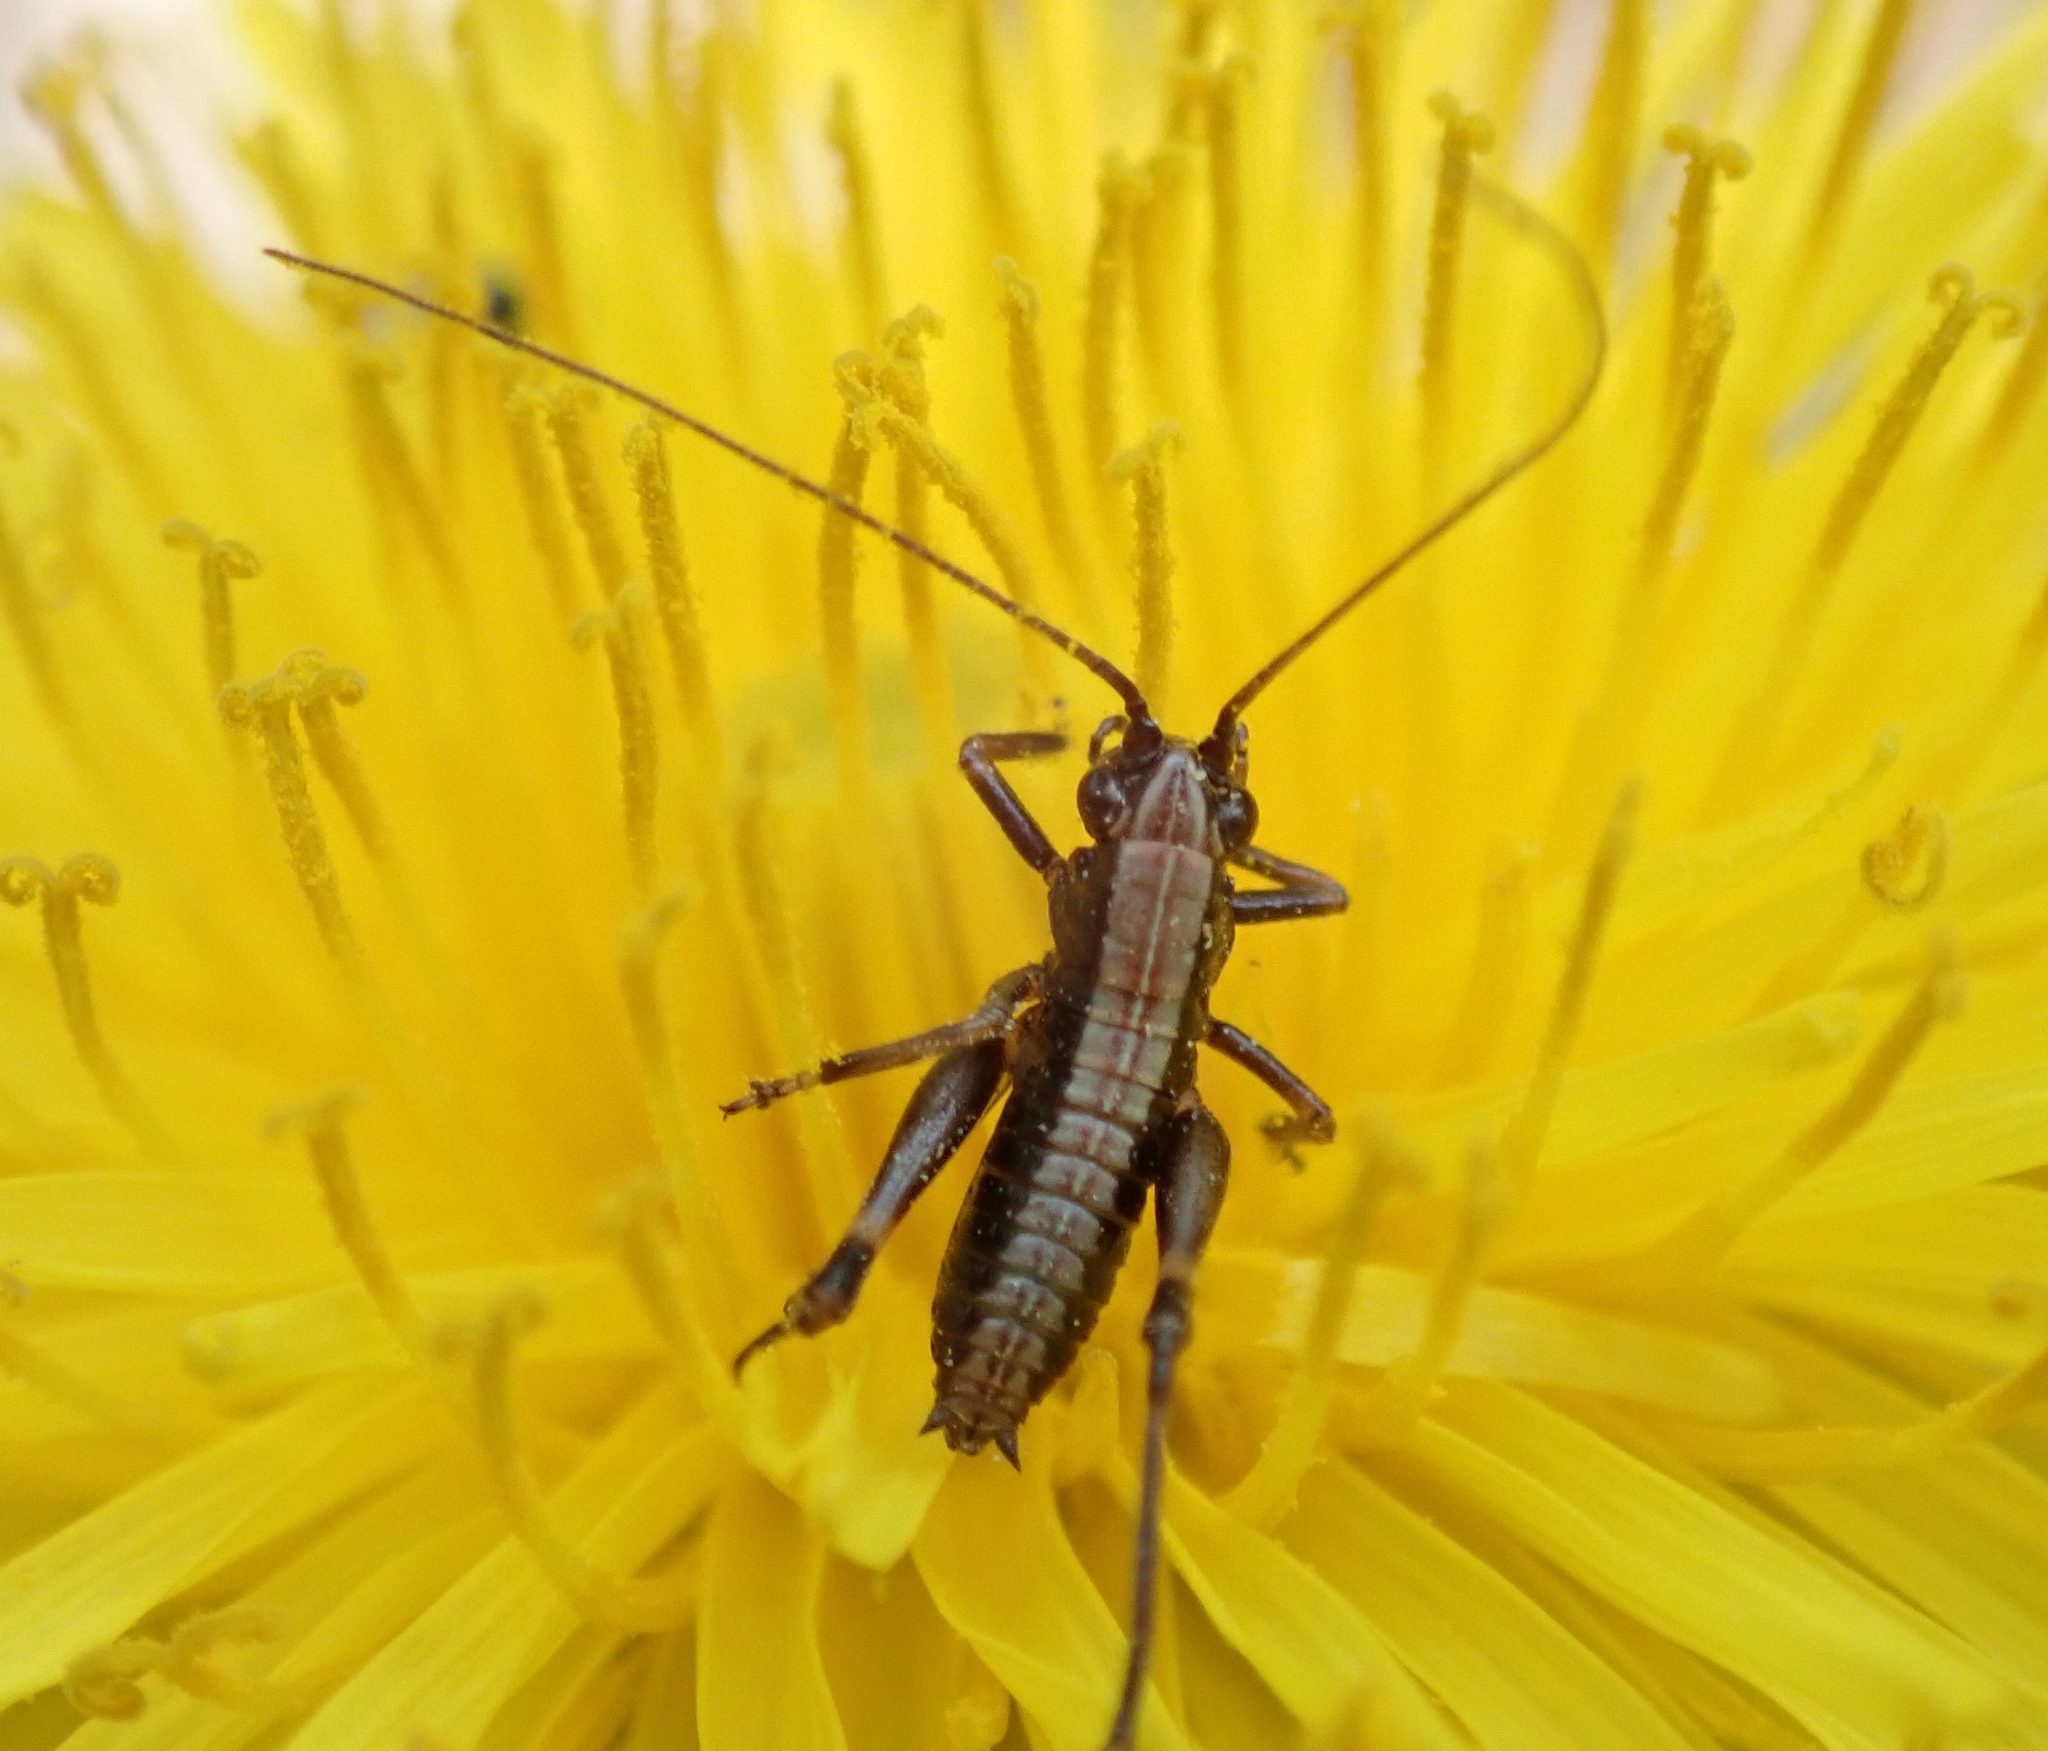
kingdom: Animalia
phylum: Arthropoda
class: Insecta
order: Orthoptera
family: Tettigoniidae
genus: Pholidoptera
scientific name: Pholidoptera griseoaptera
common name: Dark bush-cricket
